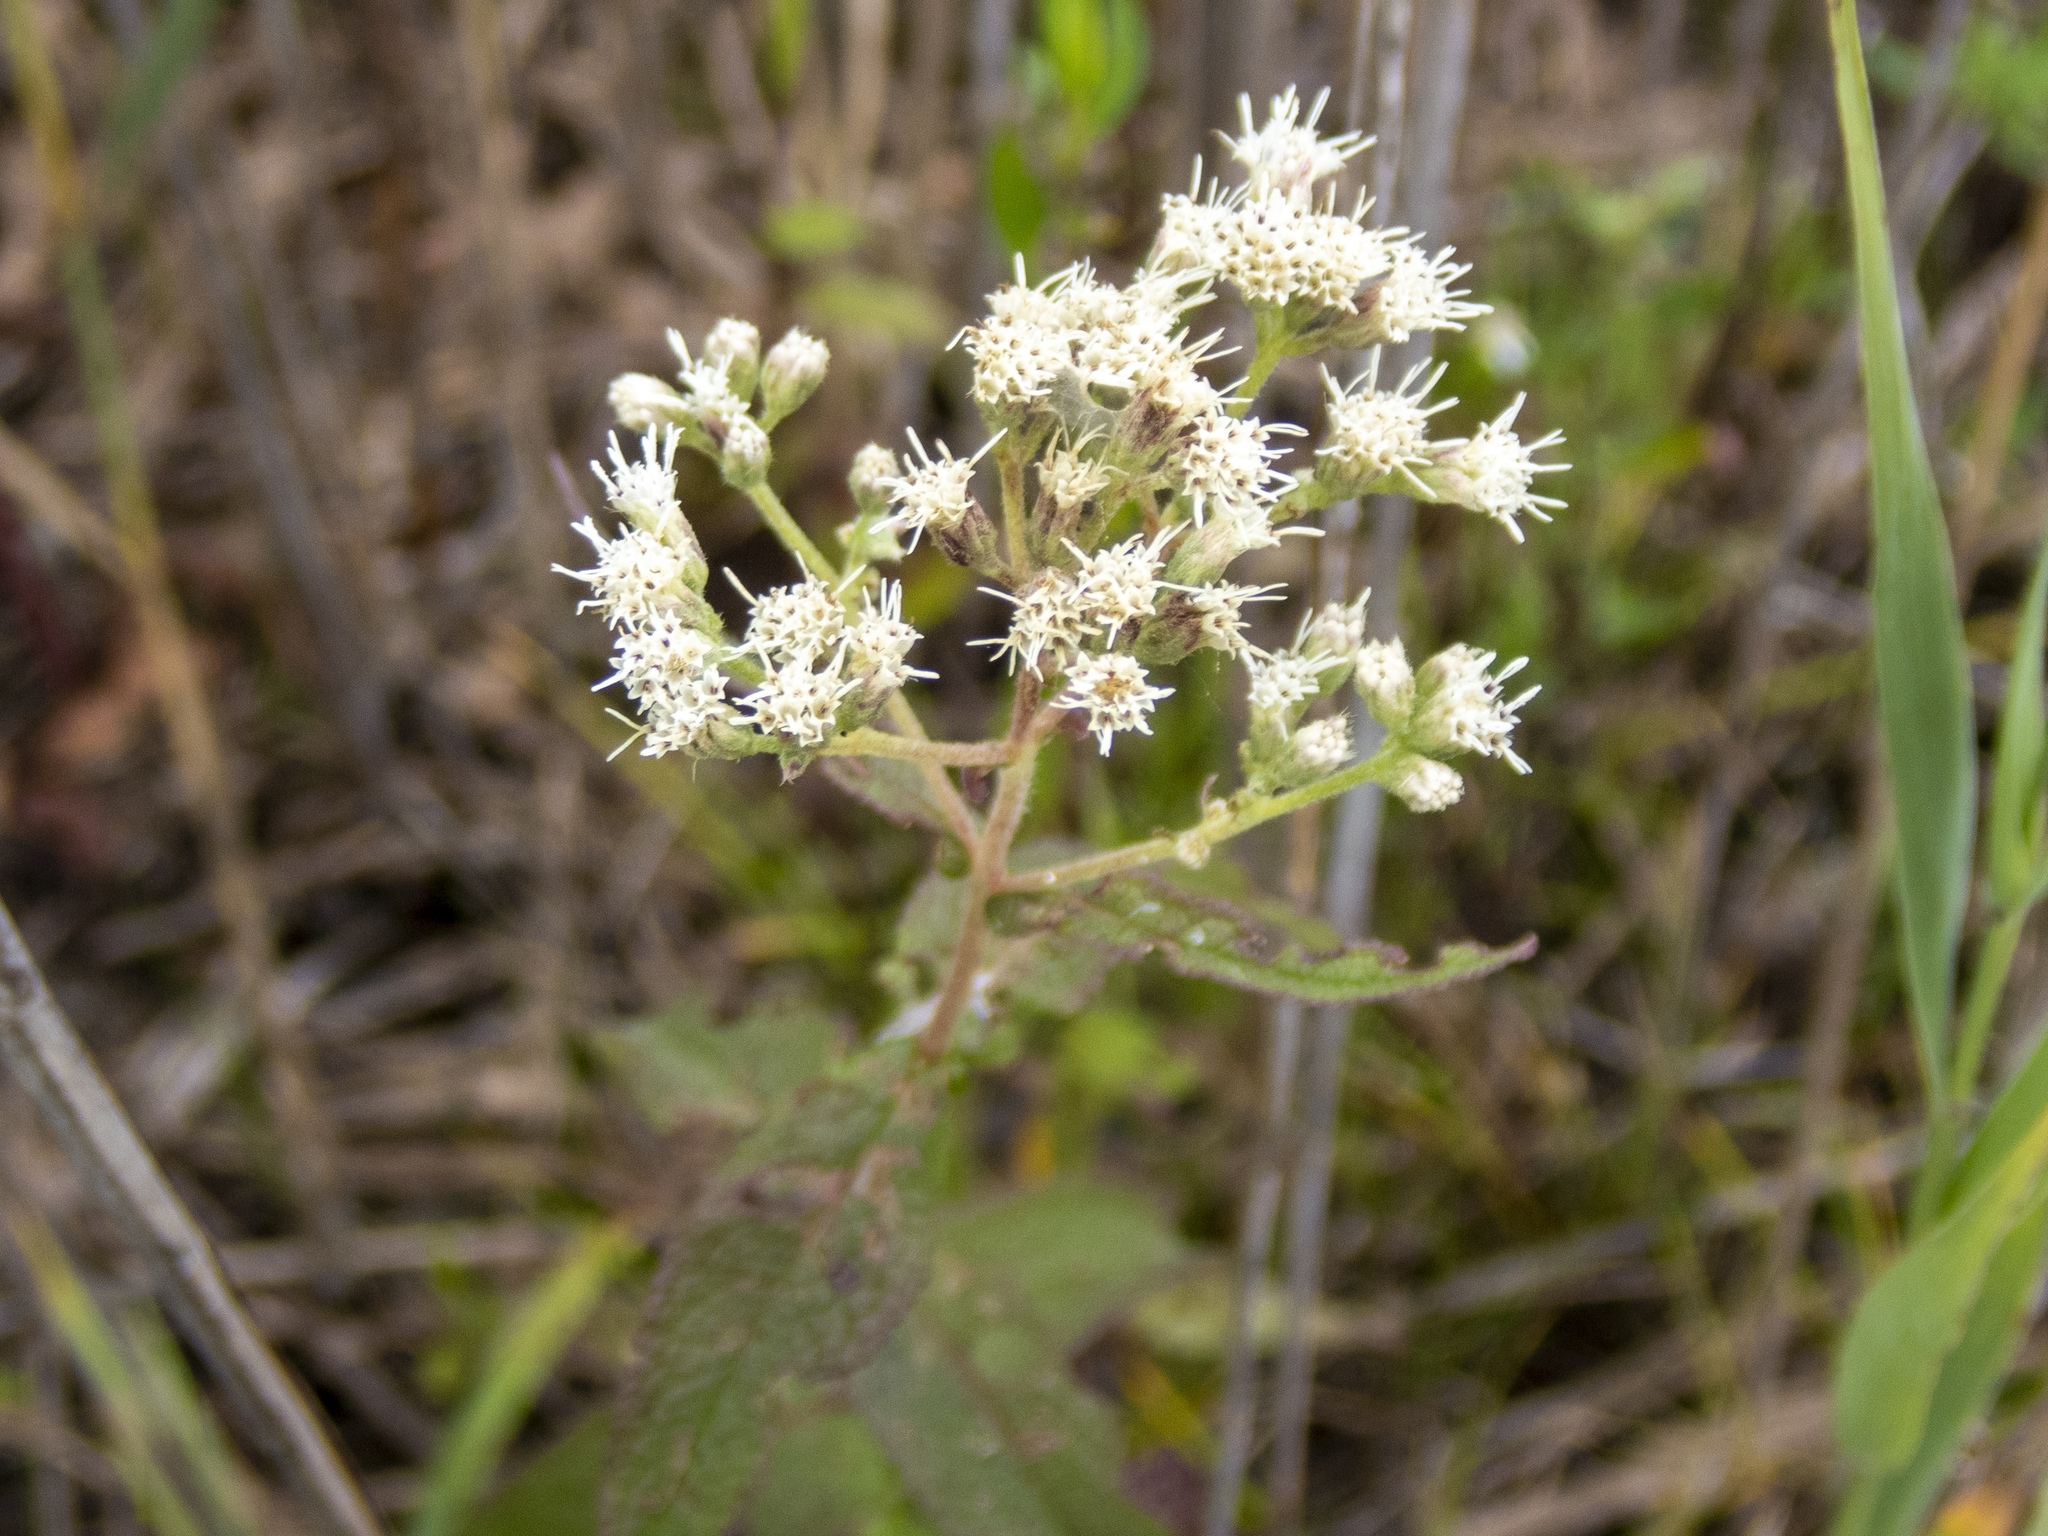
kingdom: Plantae
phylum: Tracheophyta
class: Magnoliopsida
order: Asterales
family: Asteraceae
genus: Eupatorium
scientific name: Eupatorium perfoliatum
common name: Boneset
